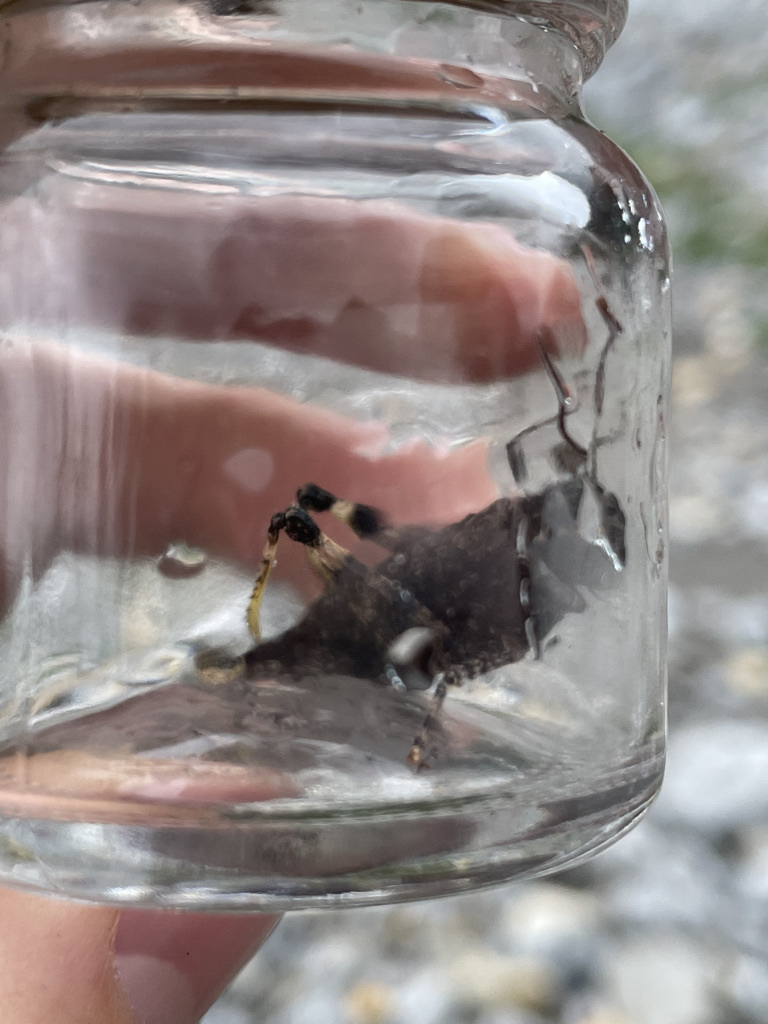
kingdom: Animalia
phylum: Arthropoda
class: Insecta
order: Orthoptera
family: Acrididae
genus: Trimerotropis
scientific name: Trimerotropis verruculata
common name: Crackling forest grasshopper
